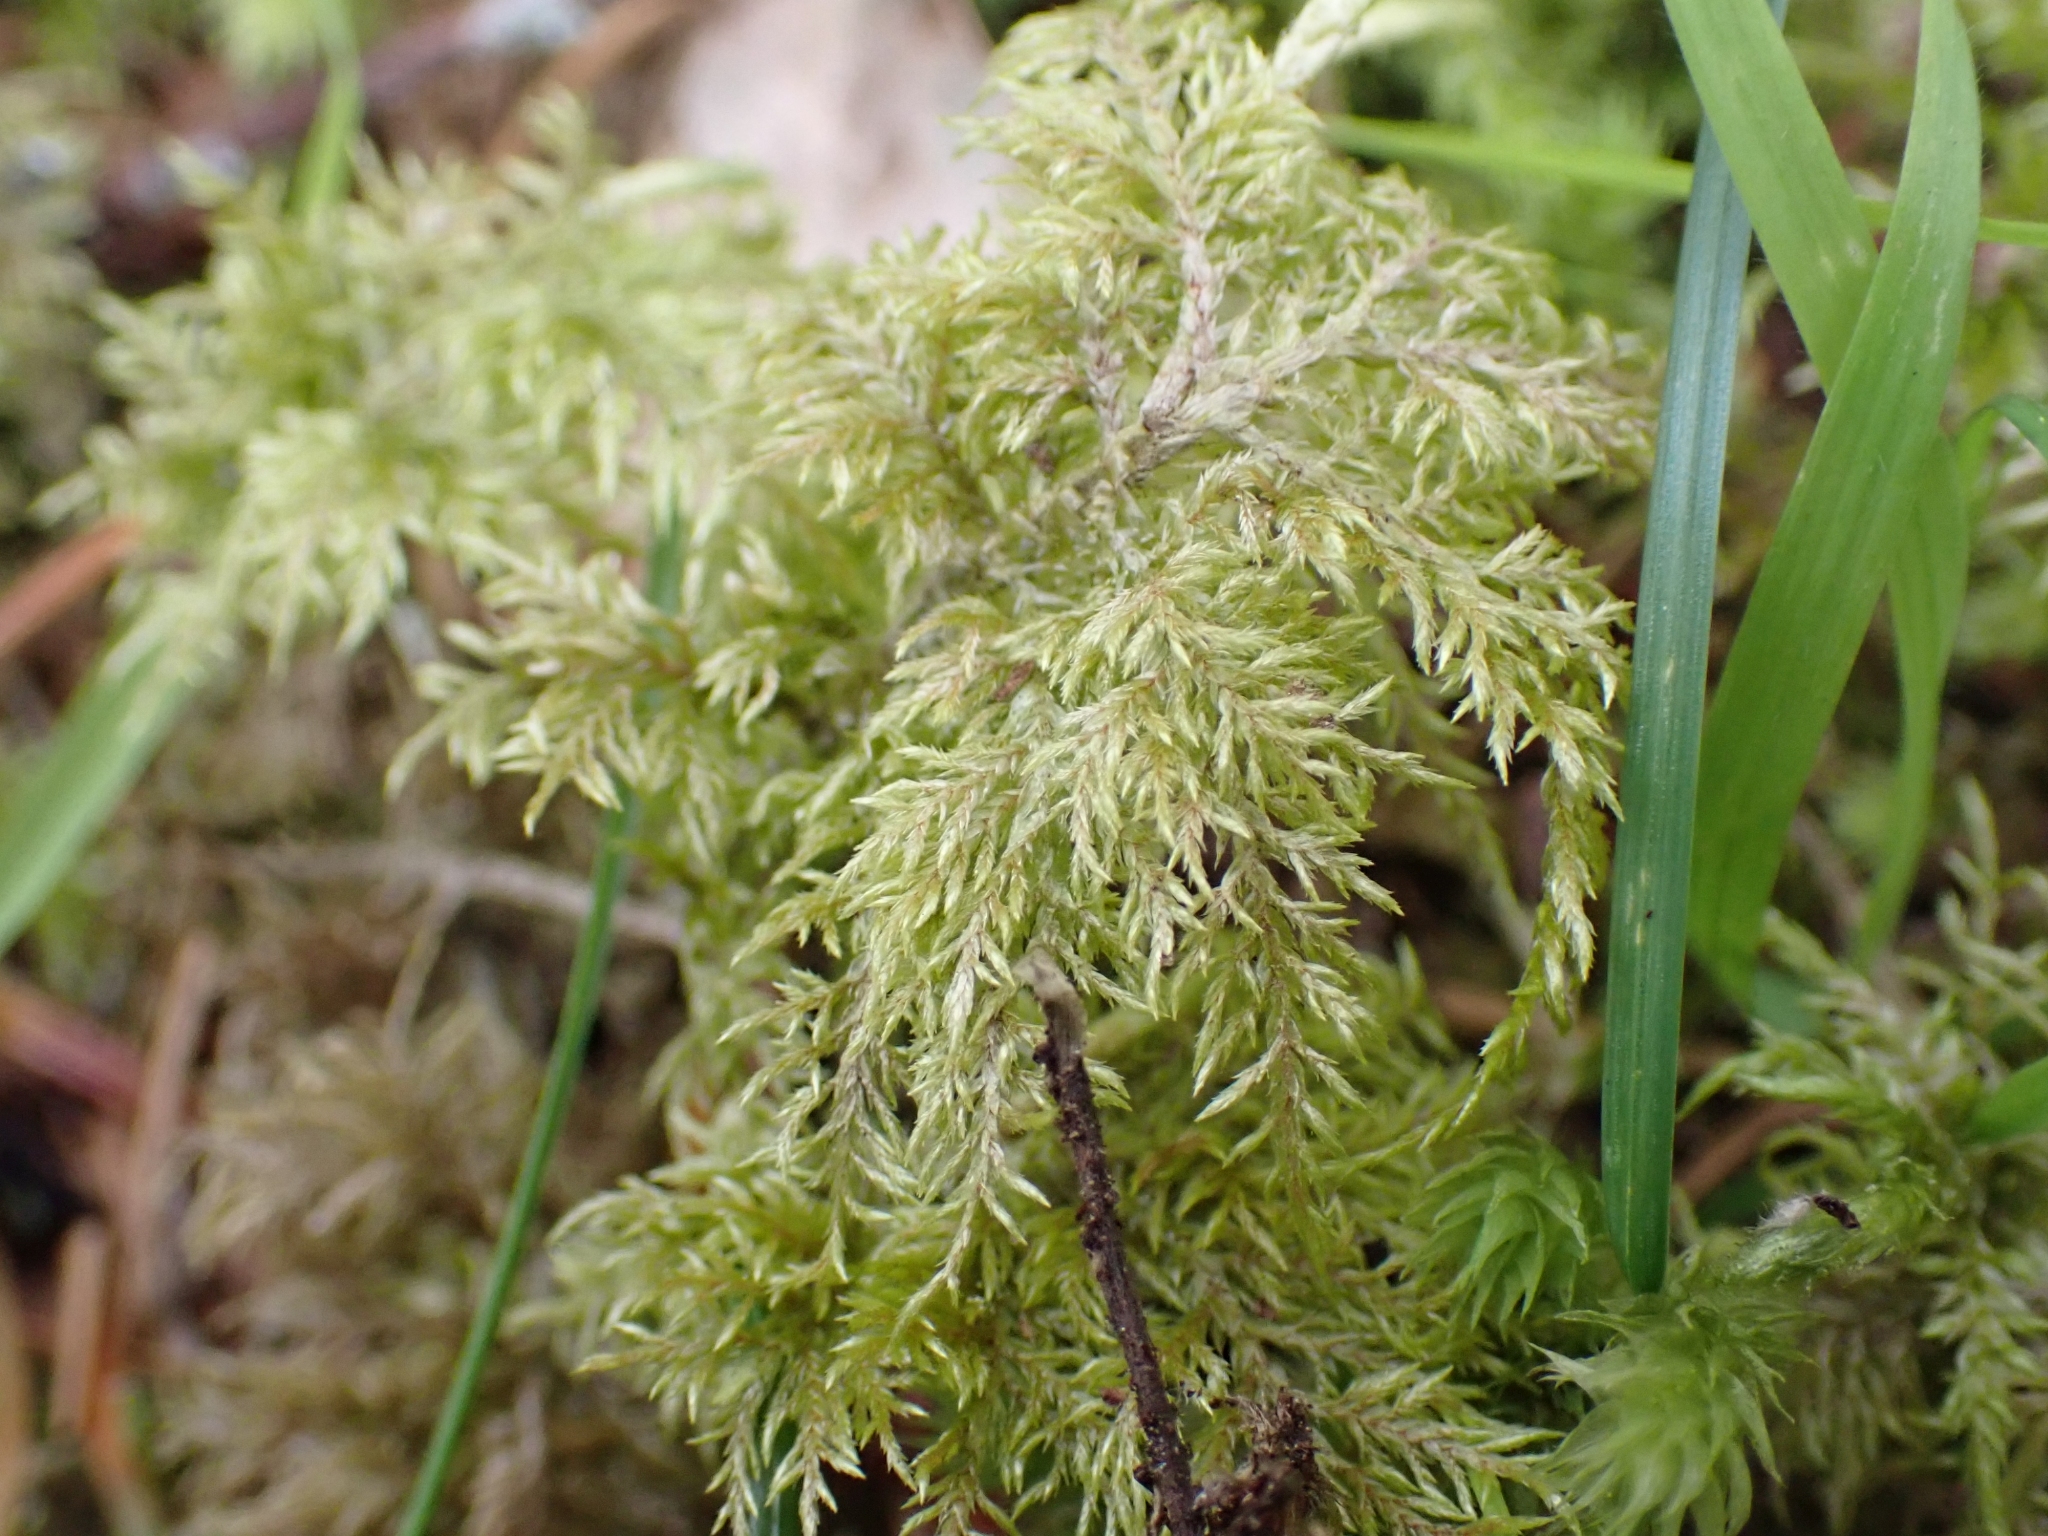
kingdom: Plantae
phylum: Bryophyta
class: Bryopsida
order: Hypnales
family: Hylocomiaceae
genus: Hylocomium
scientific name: Hylocomium splendens
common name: Stairstep moss
